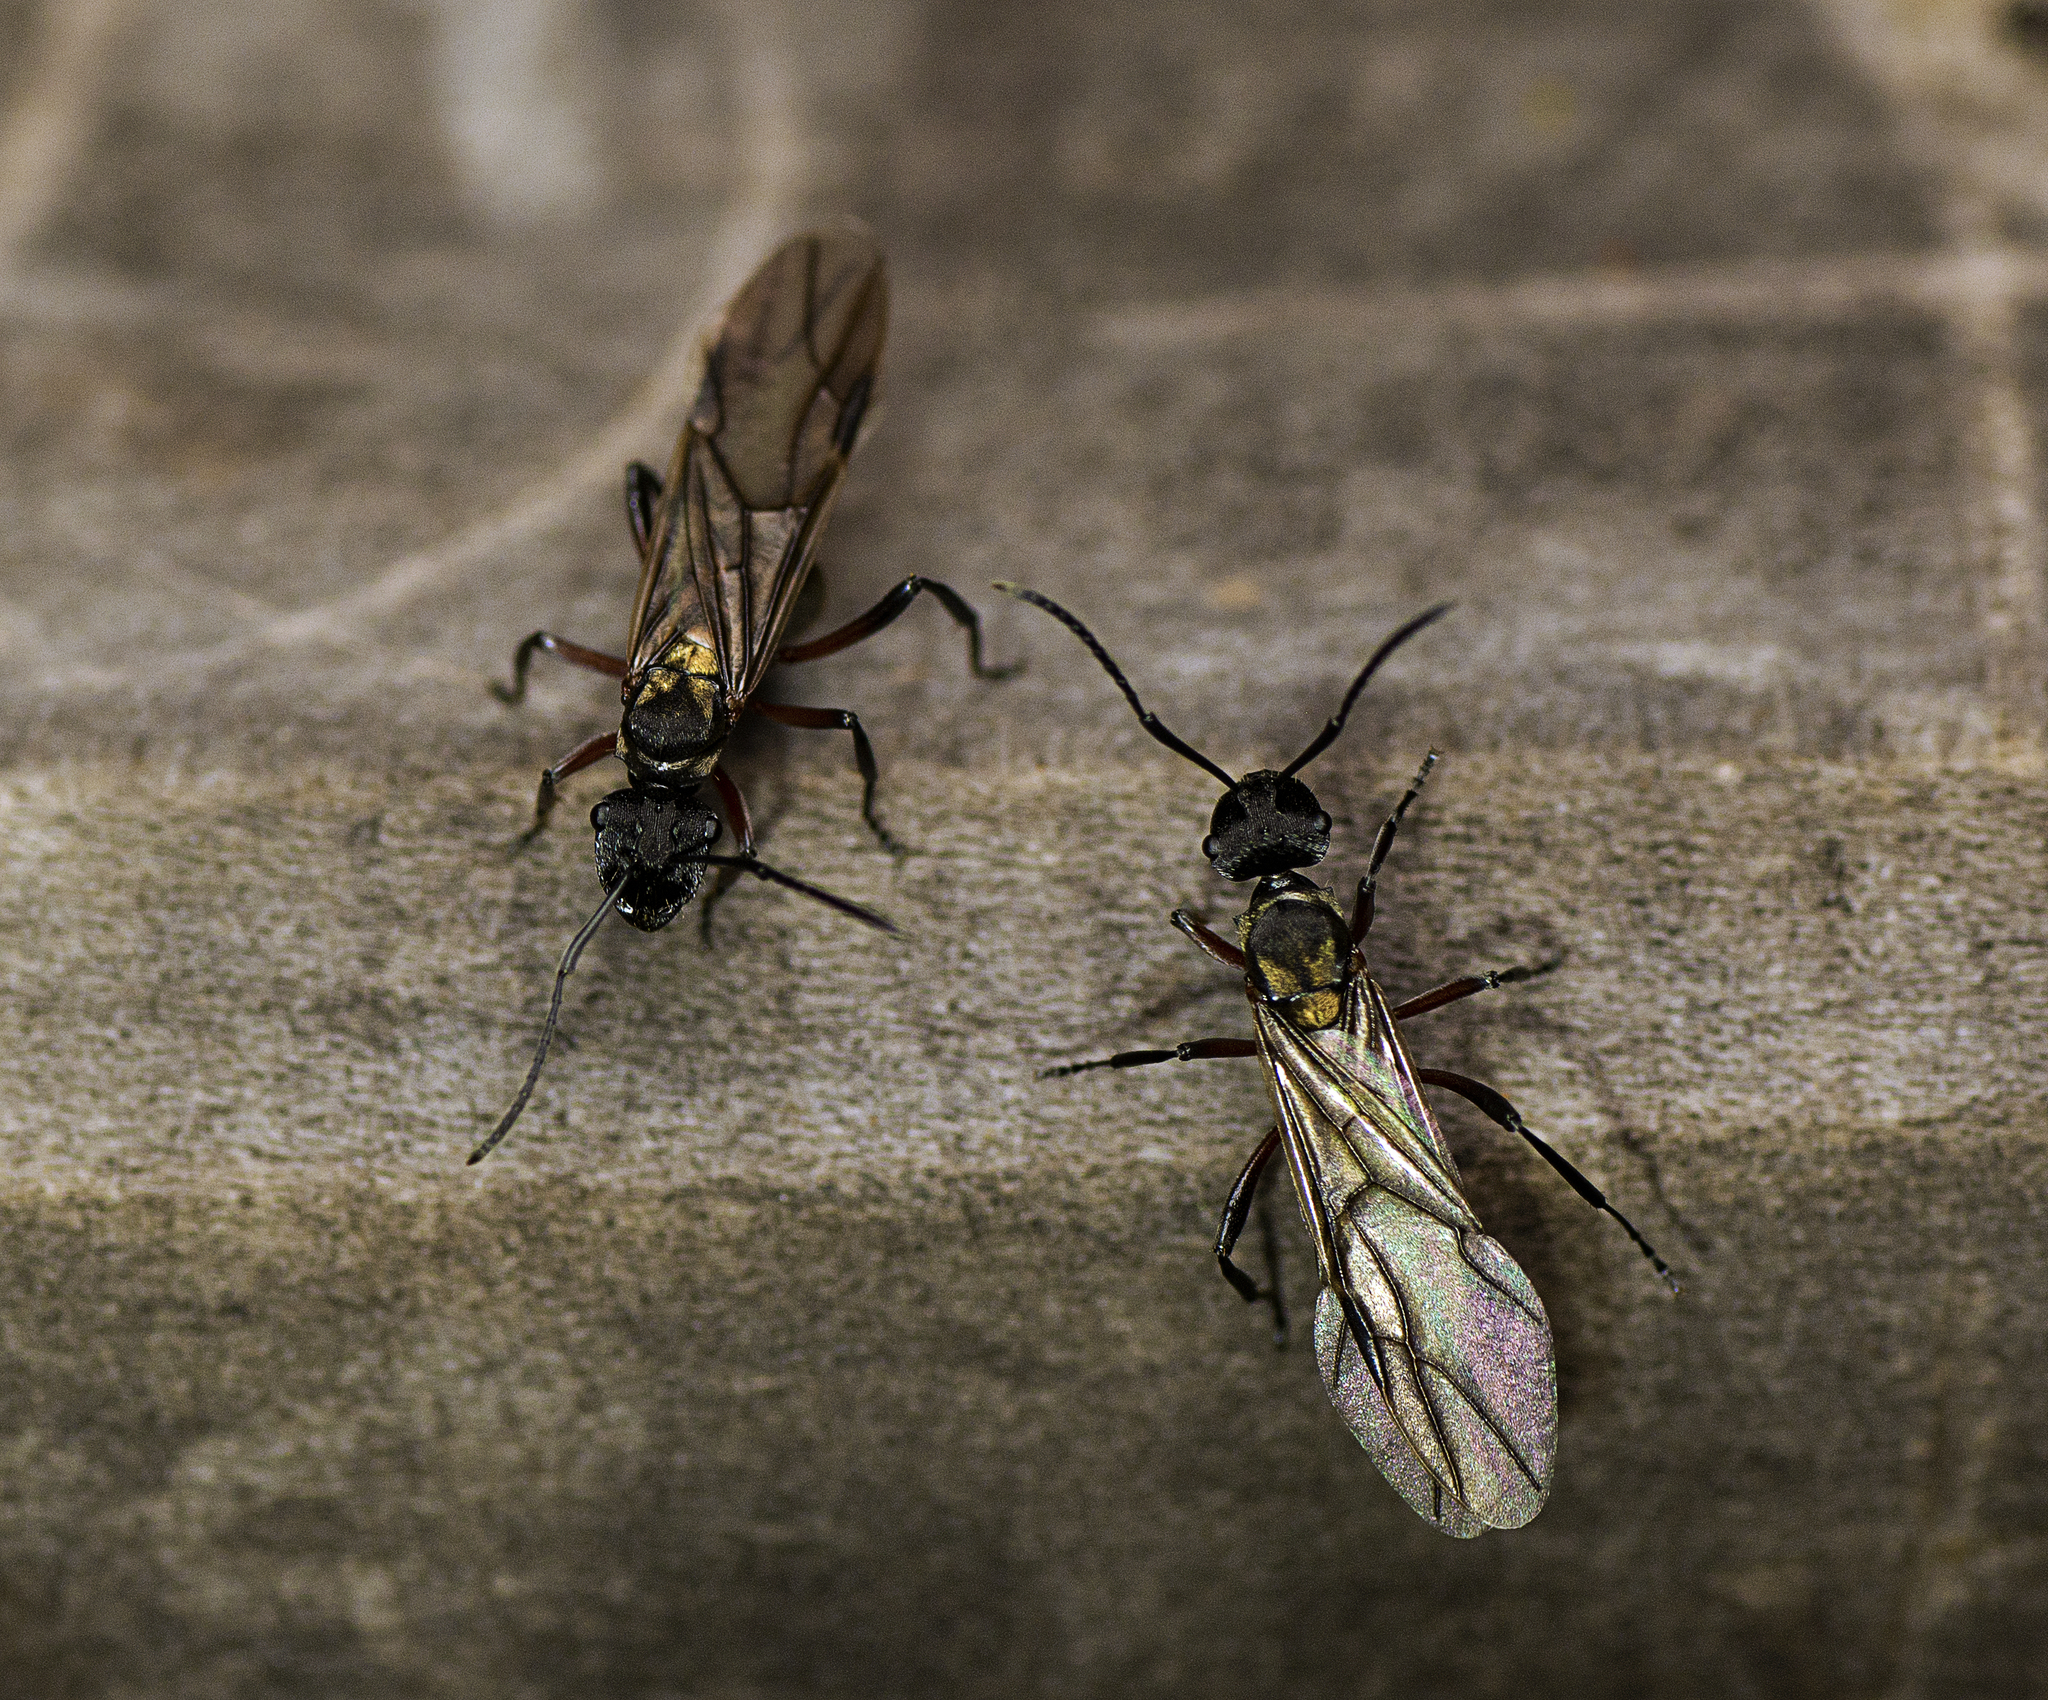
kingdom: Animalia
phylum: Arthropoda
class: Insecta
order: Hymenoptera
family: Formicidae
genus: Polyrhachis
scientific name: Polyrhachis rufifemur
